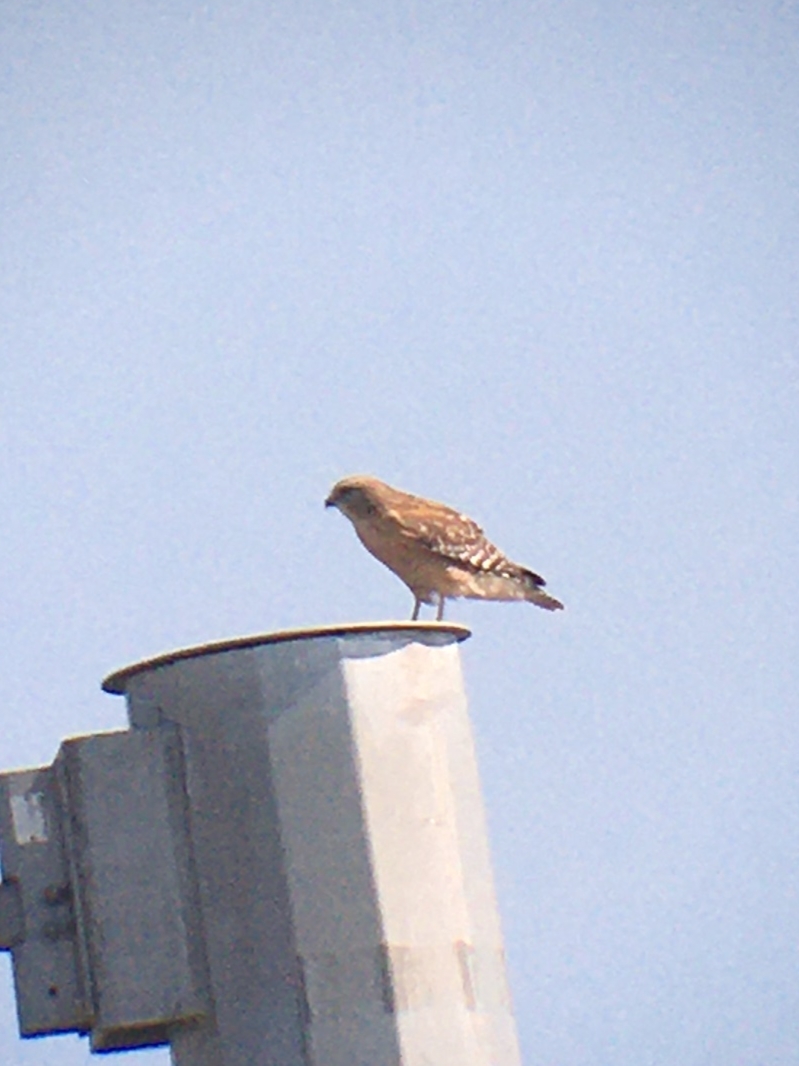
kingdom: Animalia
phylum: Chordata
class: Aves
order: Accipitriformes
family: Accipitridae
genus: Buteo
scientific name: Buteo lineatus
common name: Red-shouldered hawk
